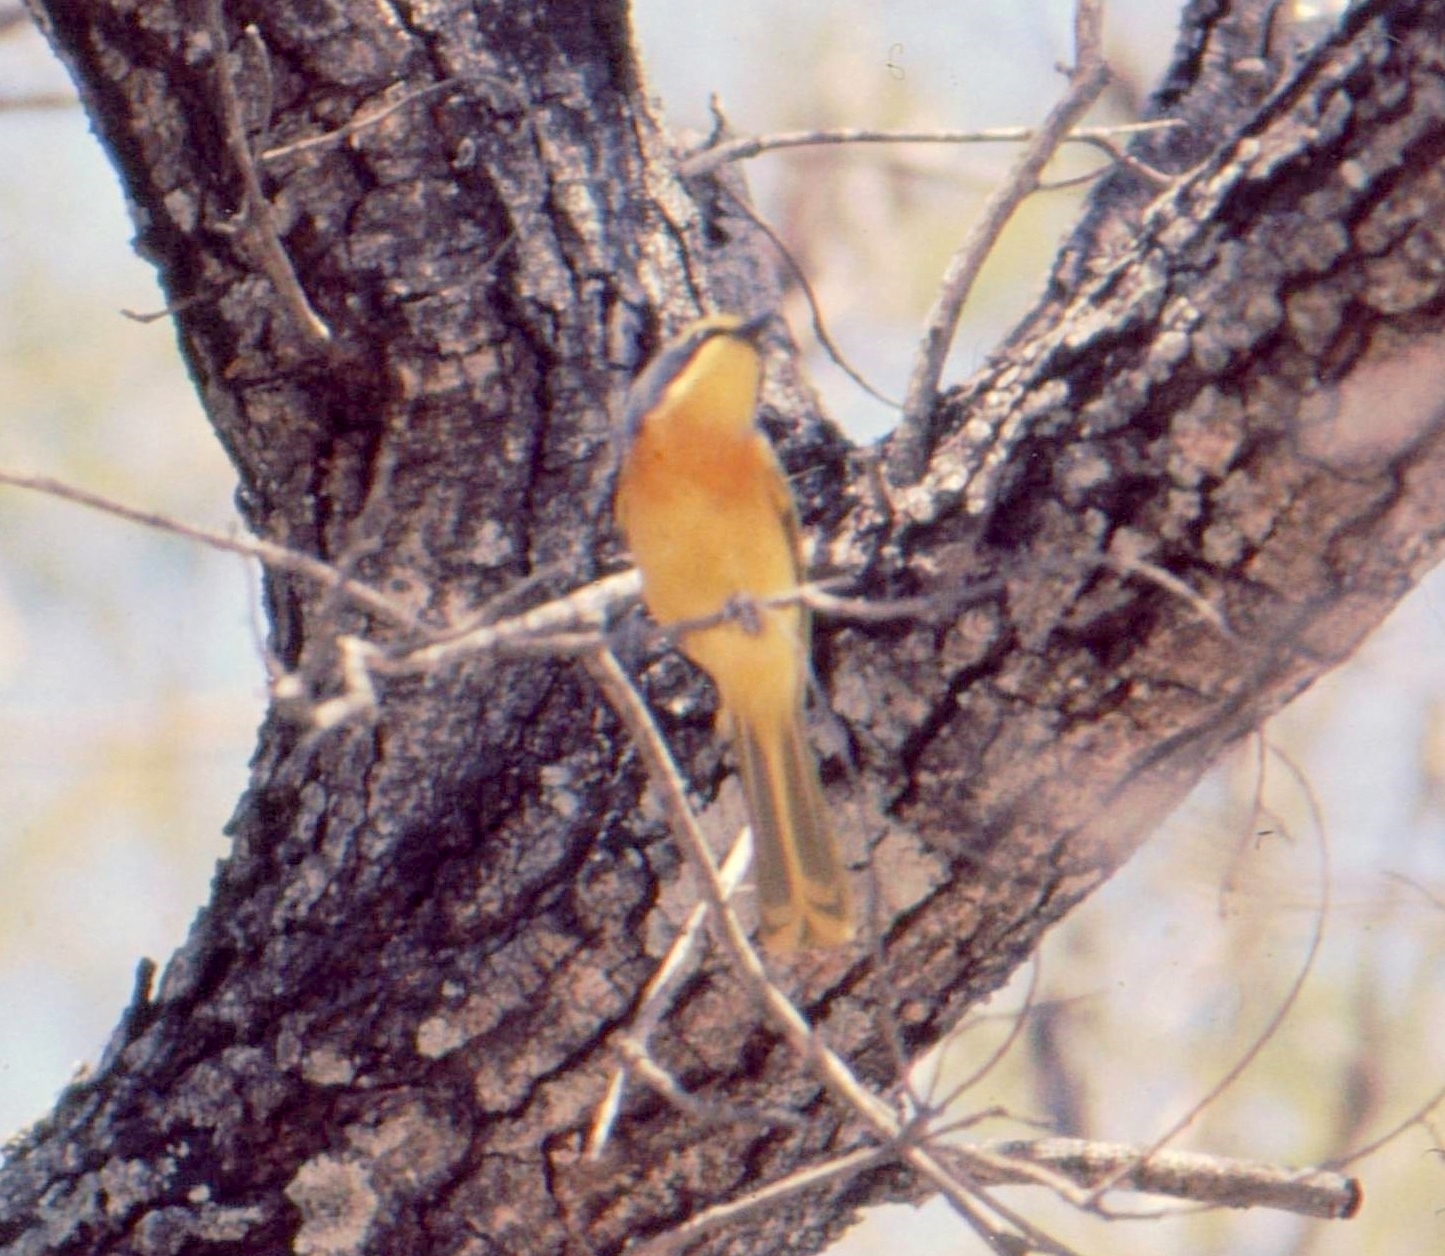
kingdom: Animalia
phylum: Chordata
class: Aves
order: Passeriformes
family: Malaconotidae
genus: Chlorophoneus
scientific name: Chlorophoneus sulfureopectus
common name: Orange-breasted bushshrike
